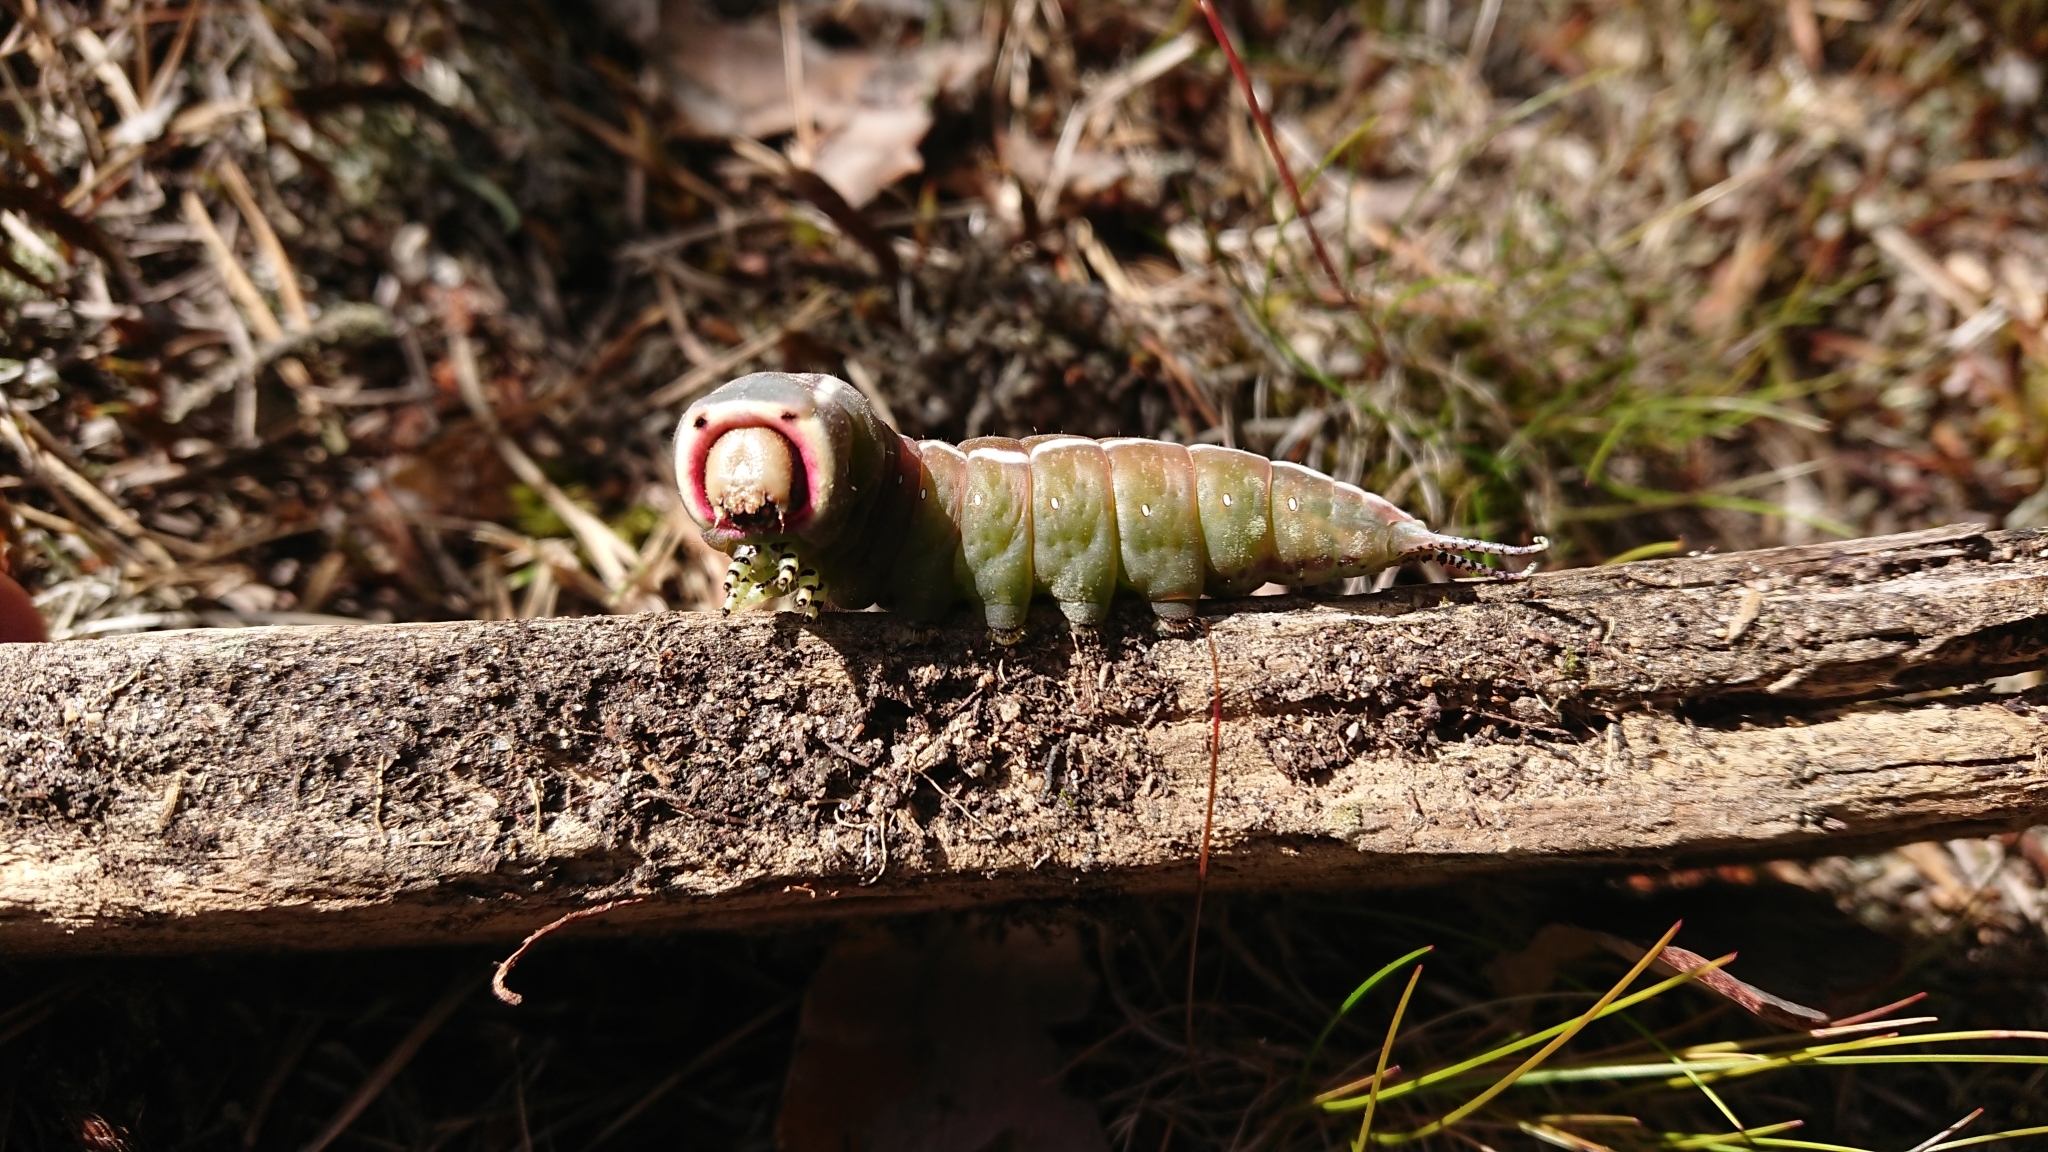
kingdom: Animalia
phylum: Arthropoda
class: Insecta
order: Lepidoptera
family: Notodontidae
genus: Cerura
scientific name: Cerura vinula
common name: Puss moth
